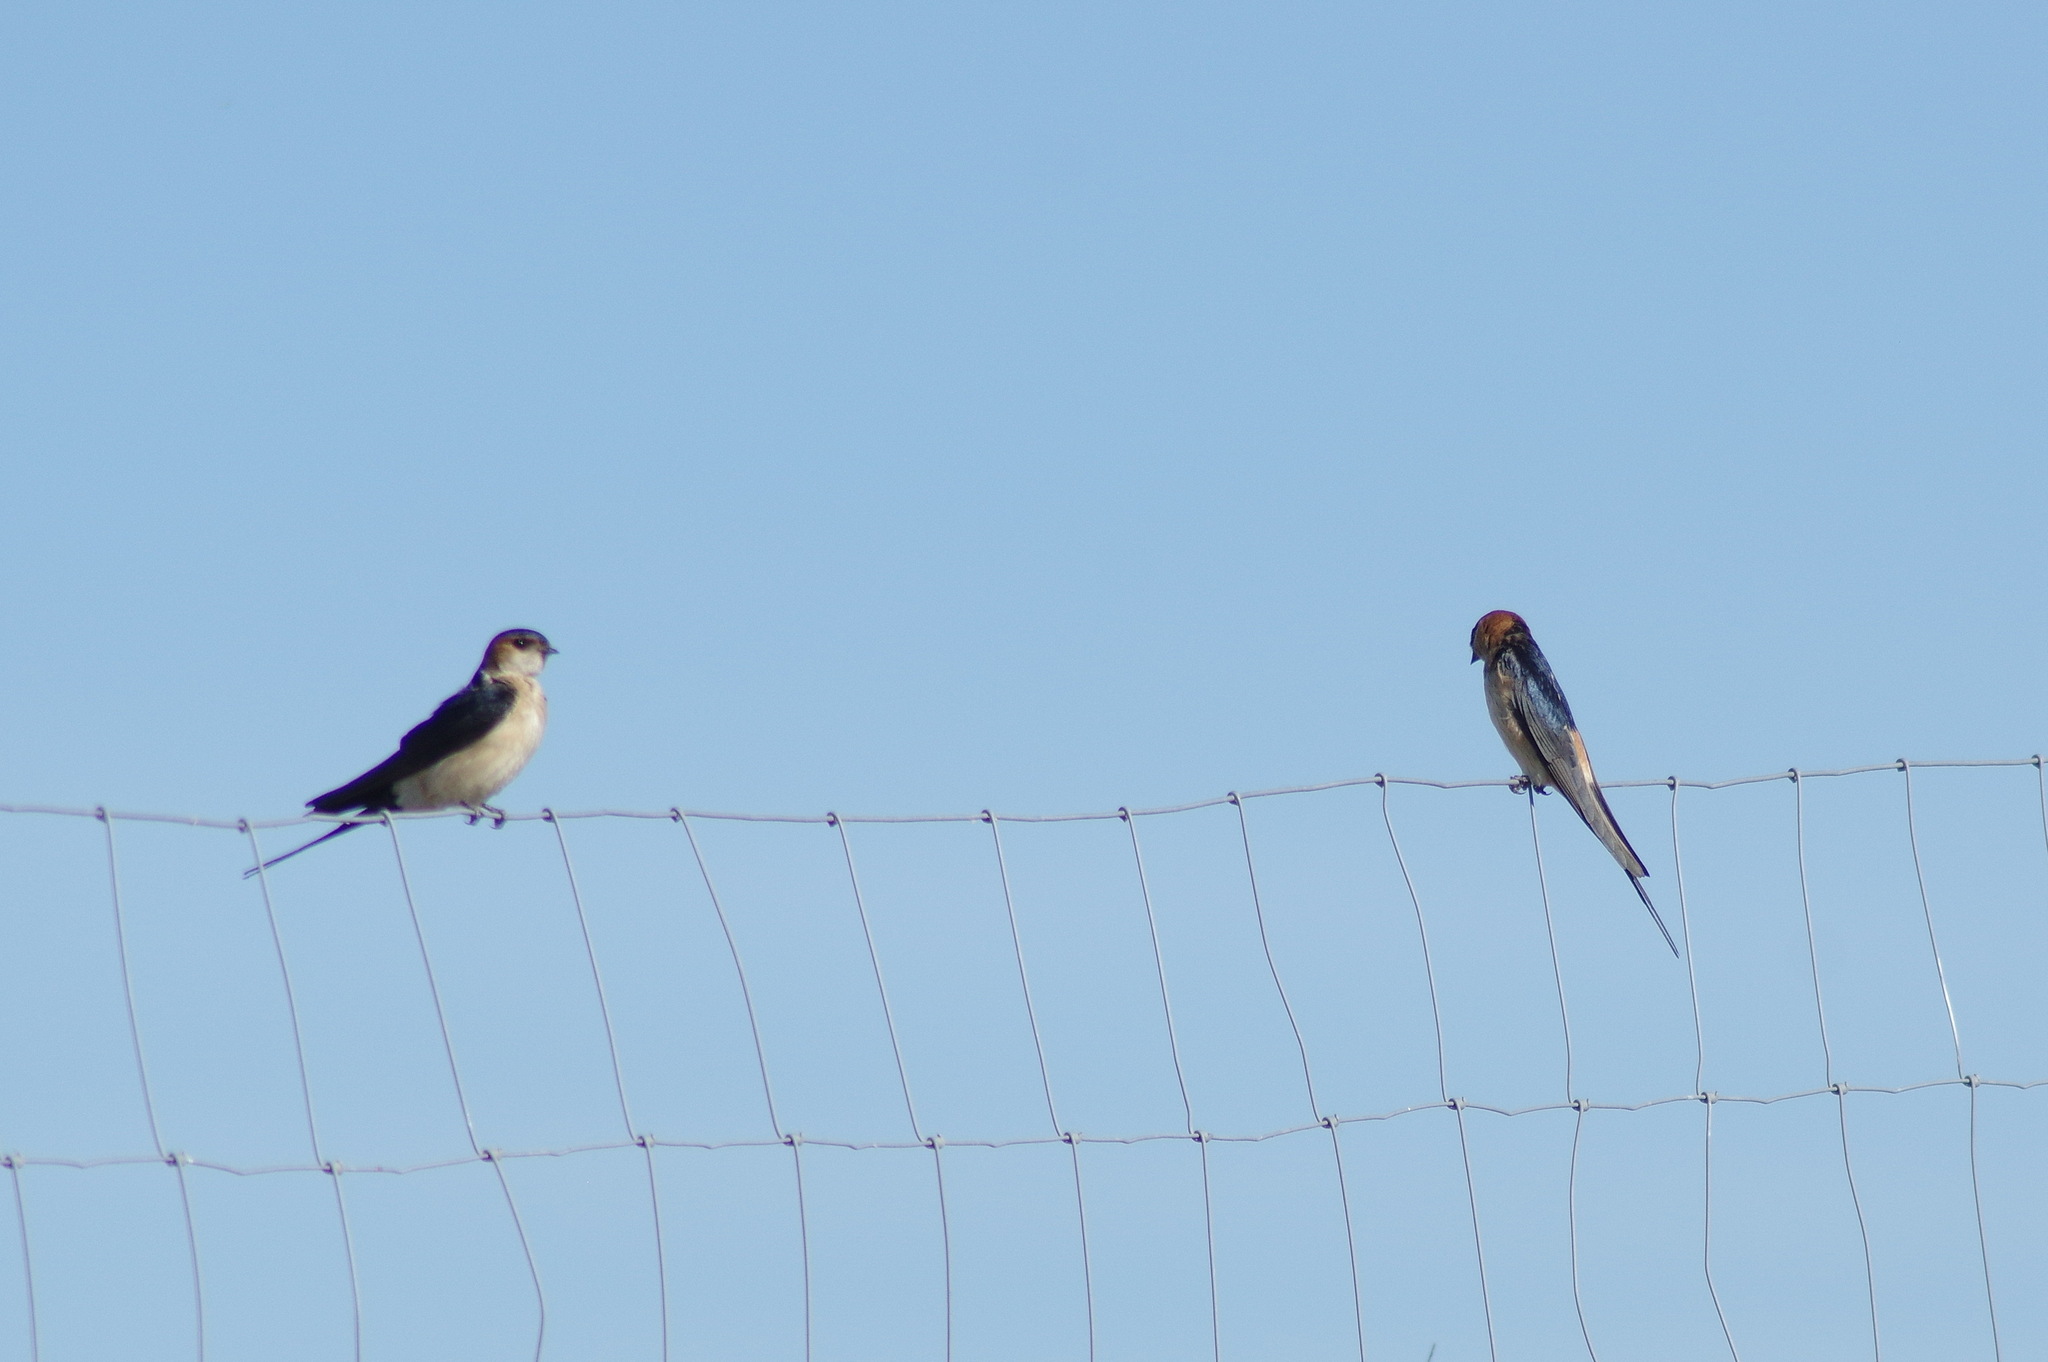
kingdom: Animalia
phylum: Chordata
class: Aves
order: Passeriformes
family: Hirundinidae
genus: Cecropis
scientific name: Cecropis daurica
